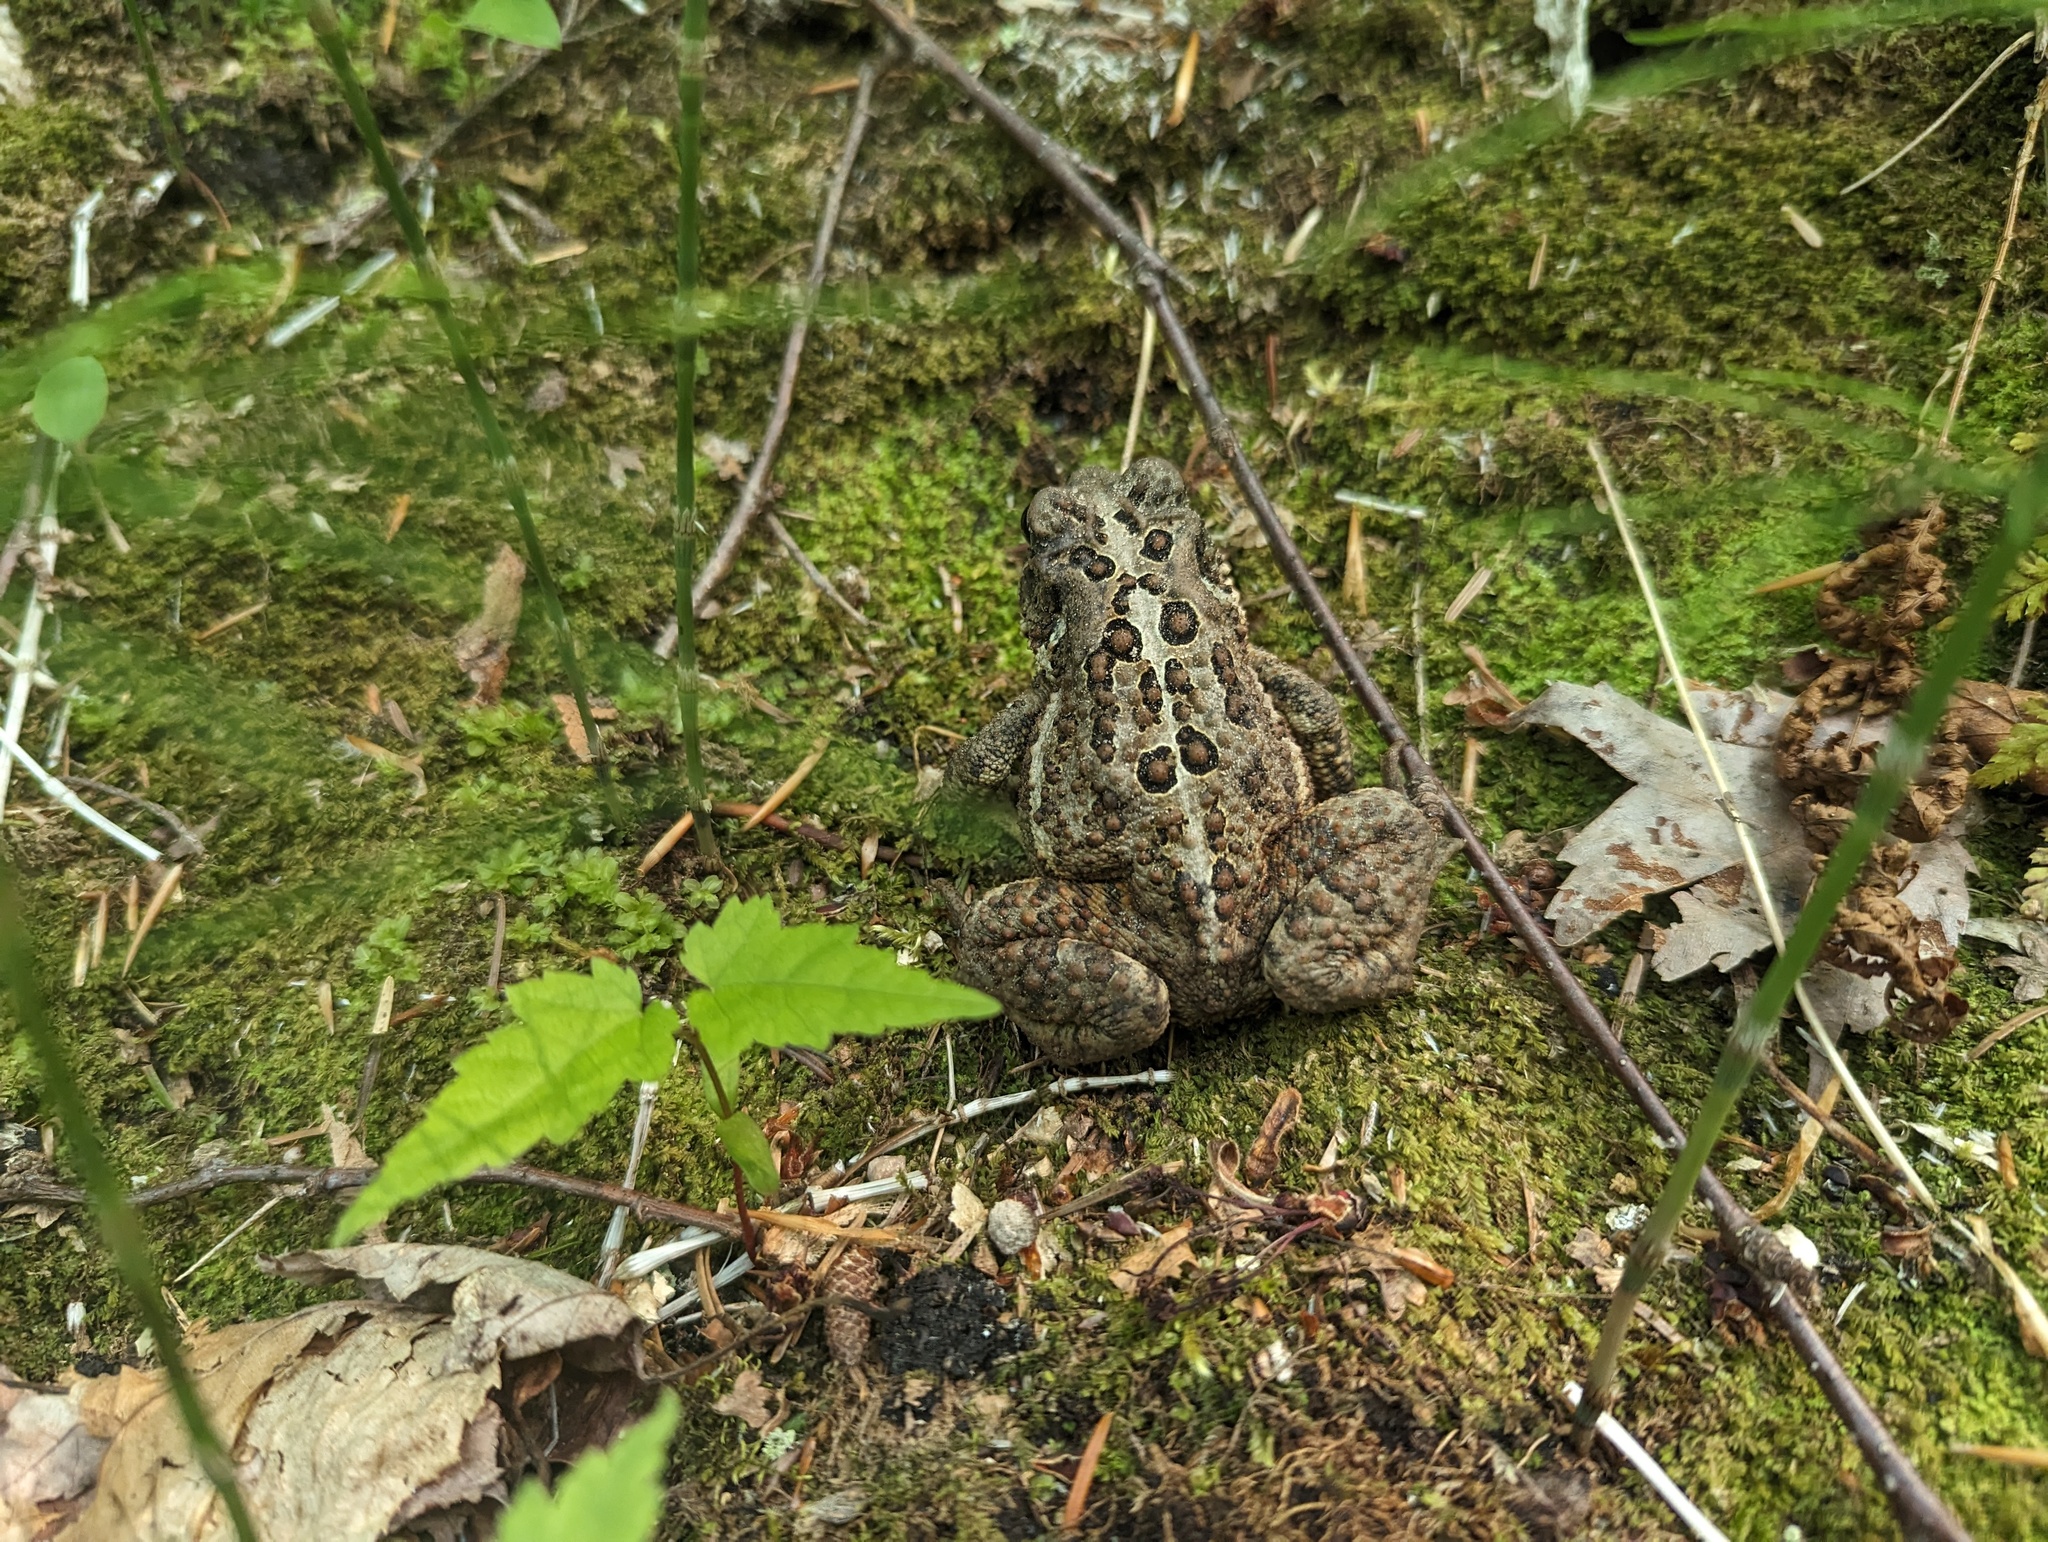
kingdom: Animalia
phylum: Chordata
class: Amphibia
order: Anura
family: Bufonidae
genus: Anaxyrus
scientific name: Anaxyrus americanus
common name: American toad
